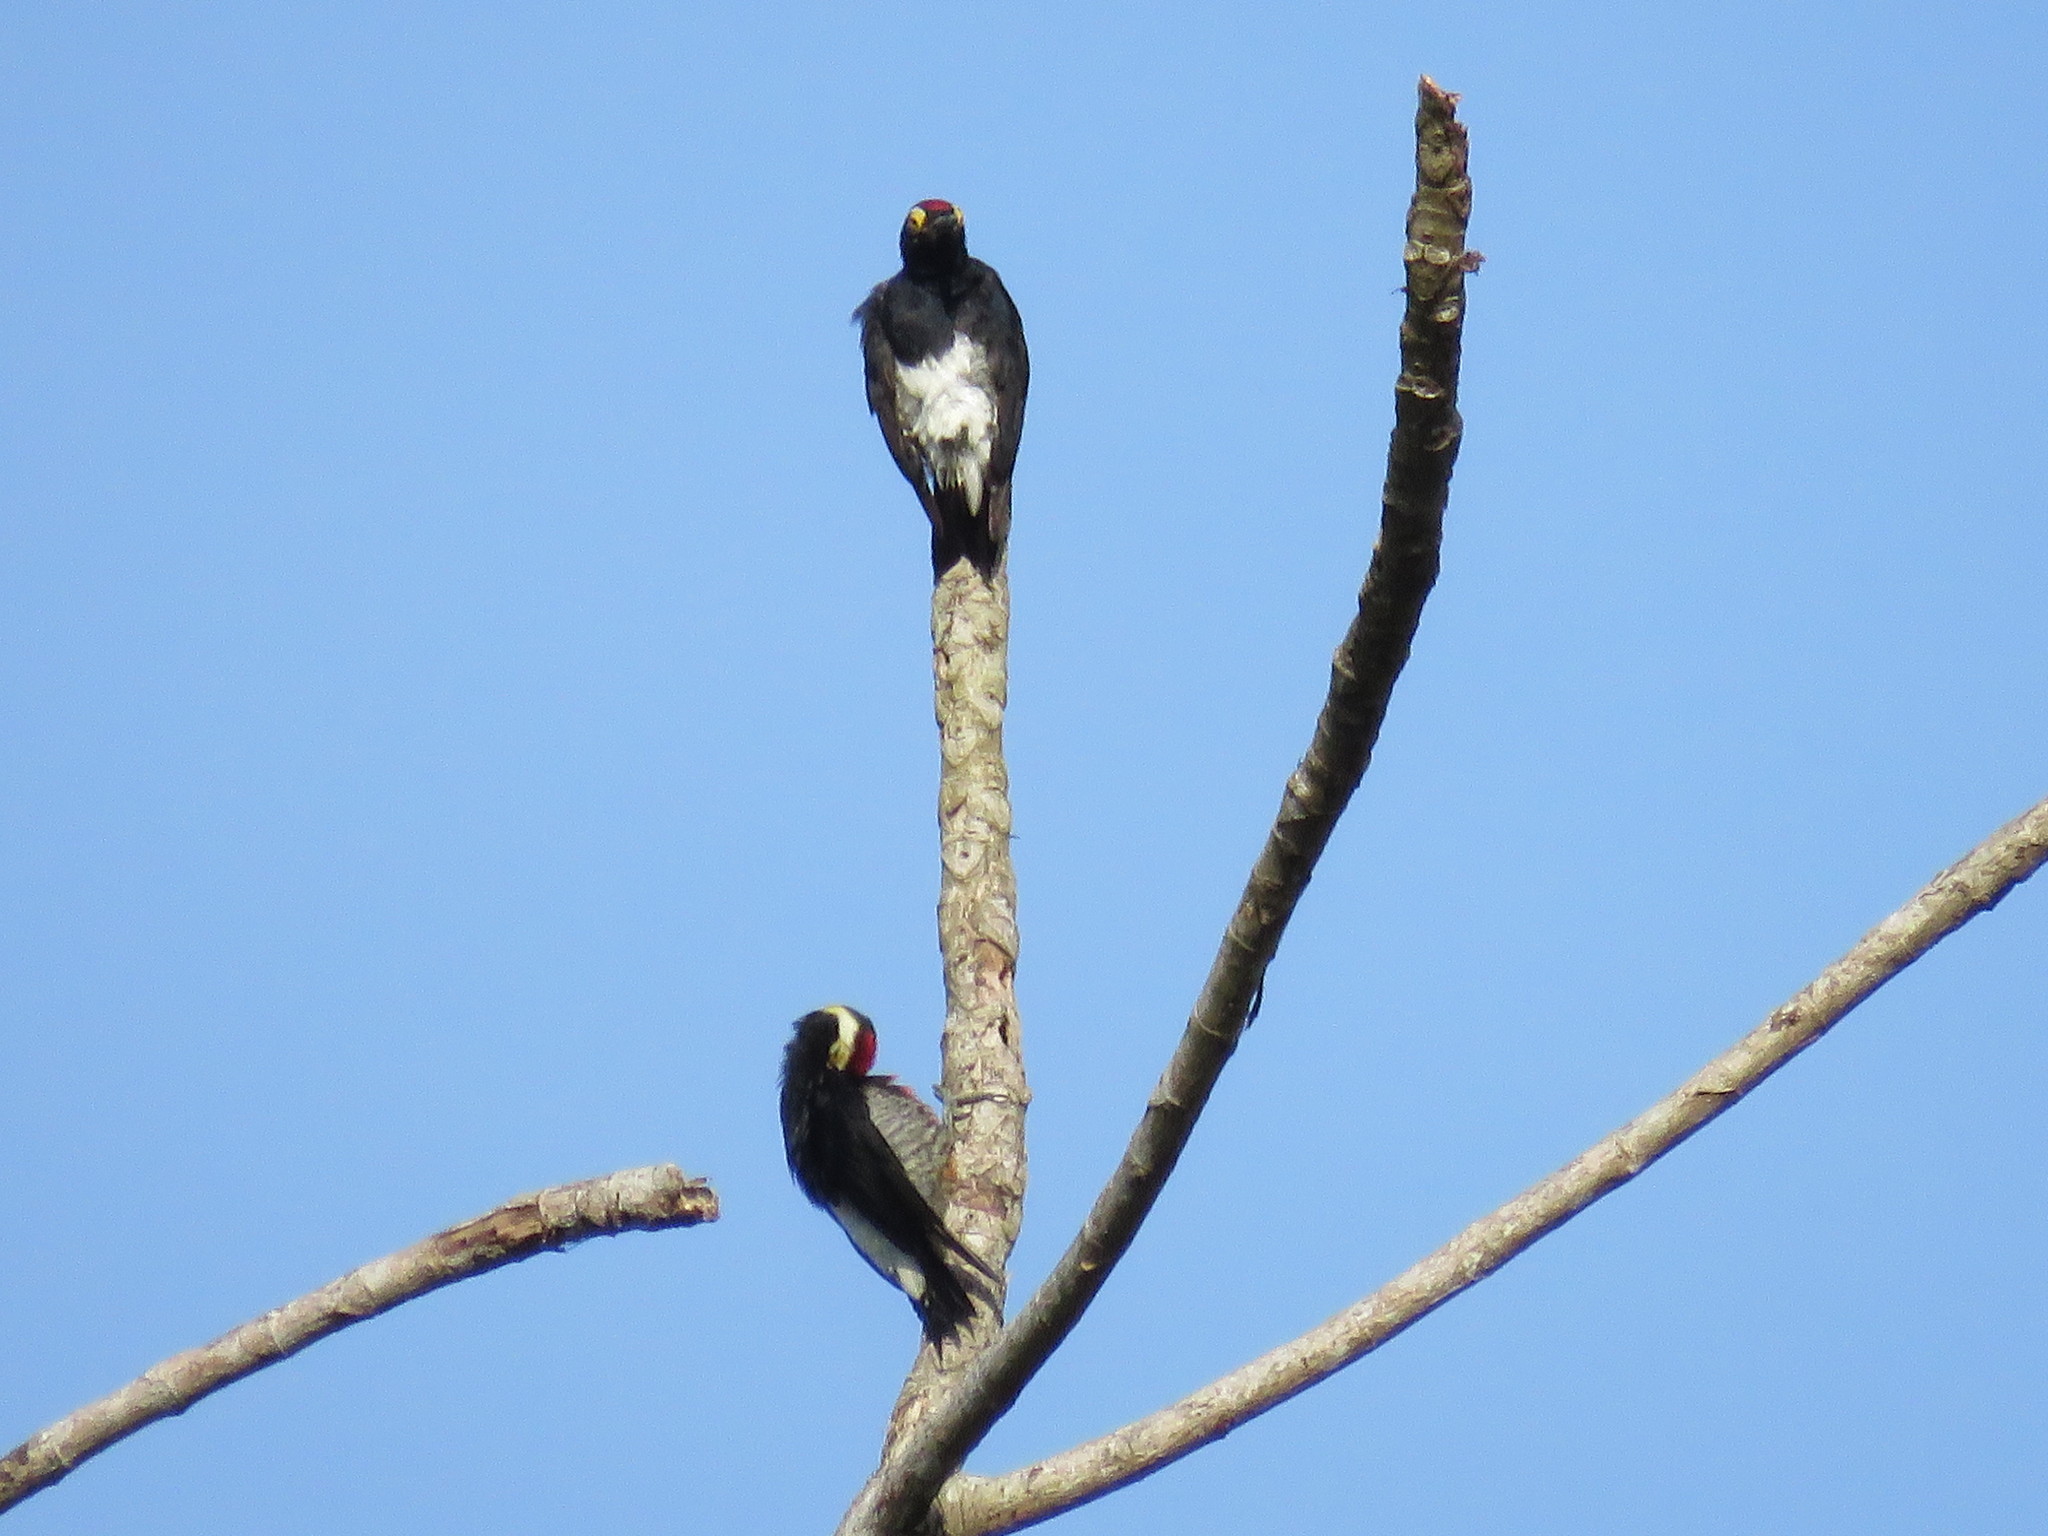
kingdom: Animalia
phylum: Chordata
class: Aves
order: Piciformes
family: Picidae
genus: Melanerpes
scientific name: Melanerpes cruentatus
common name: Yellow-tufted woodpecker
